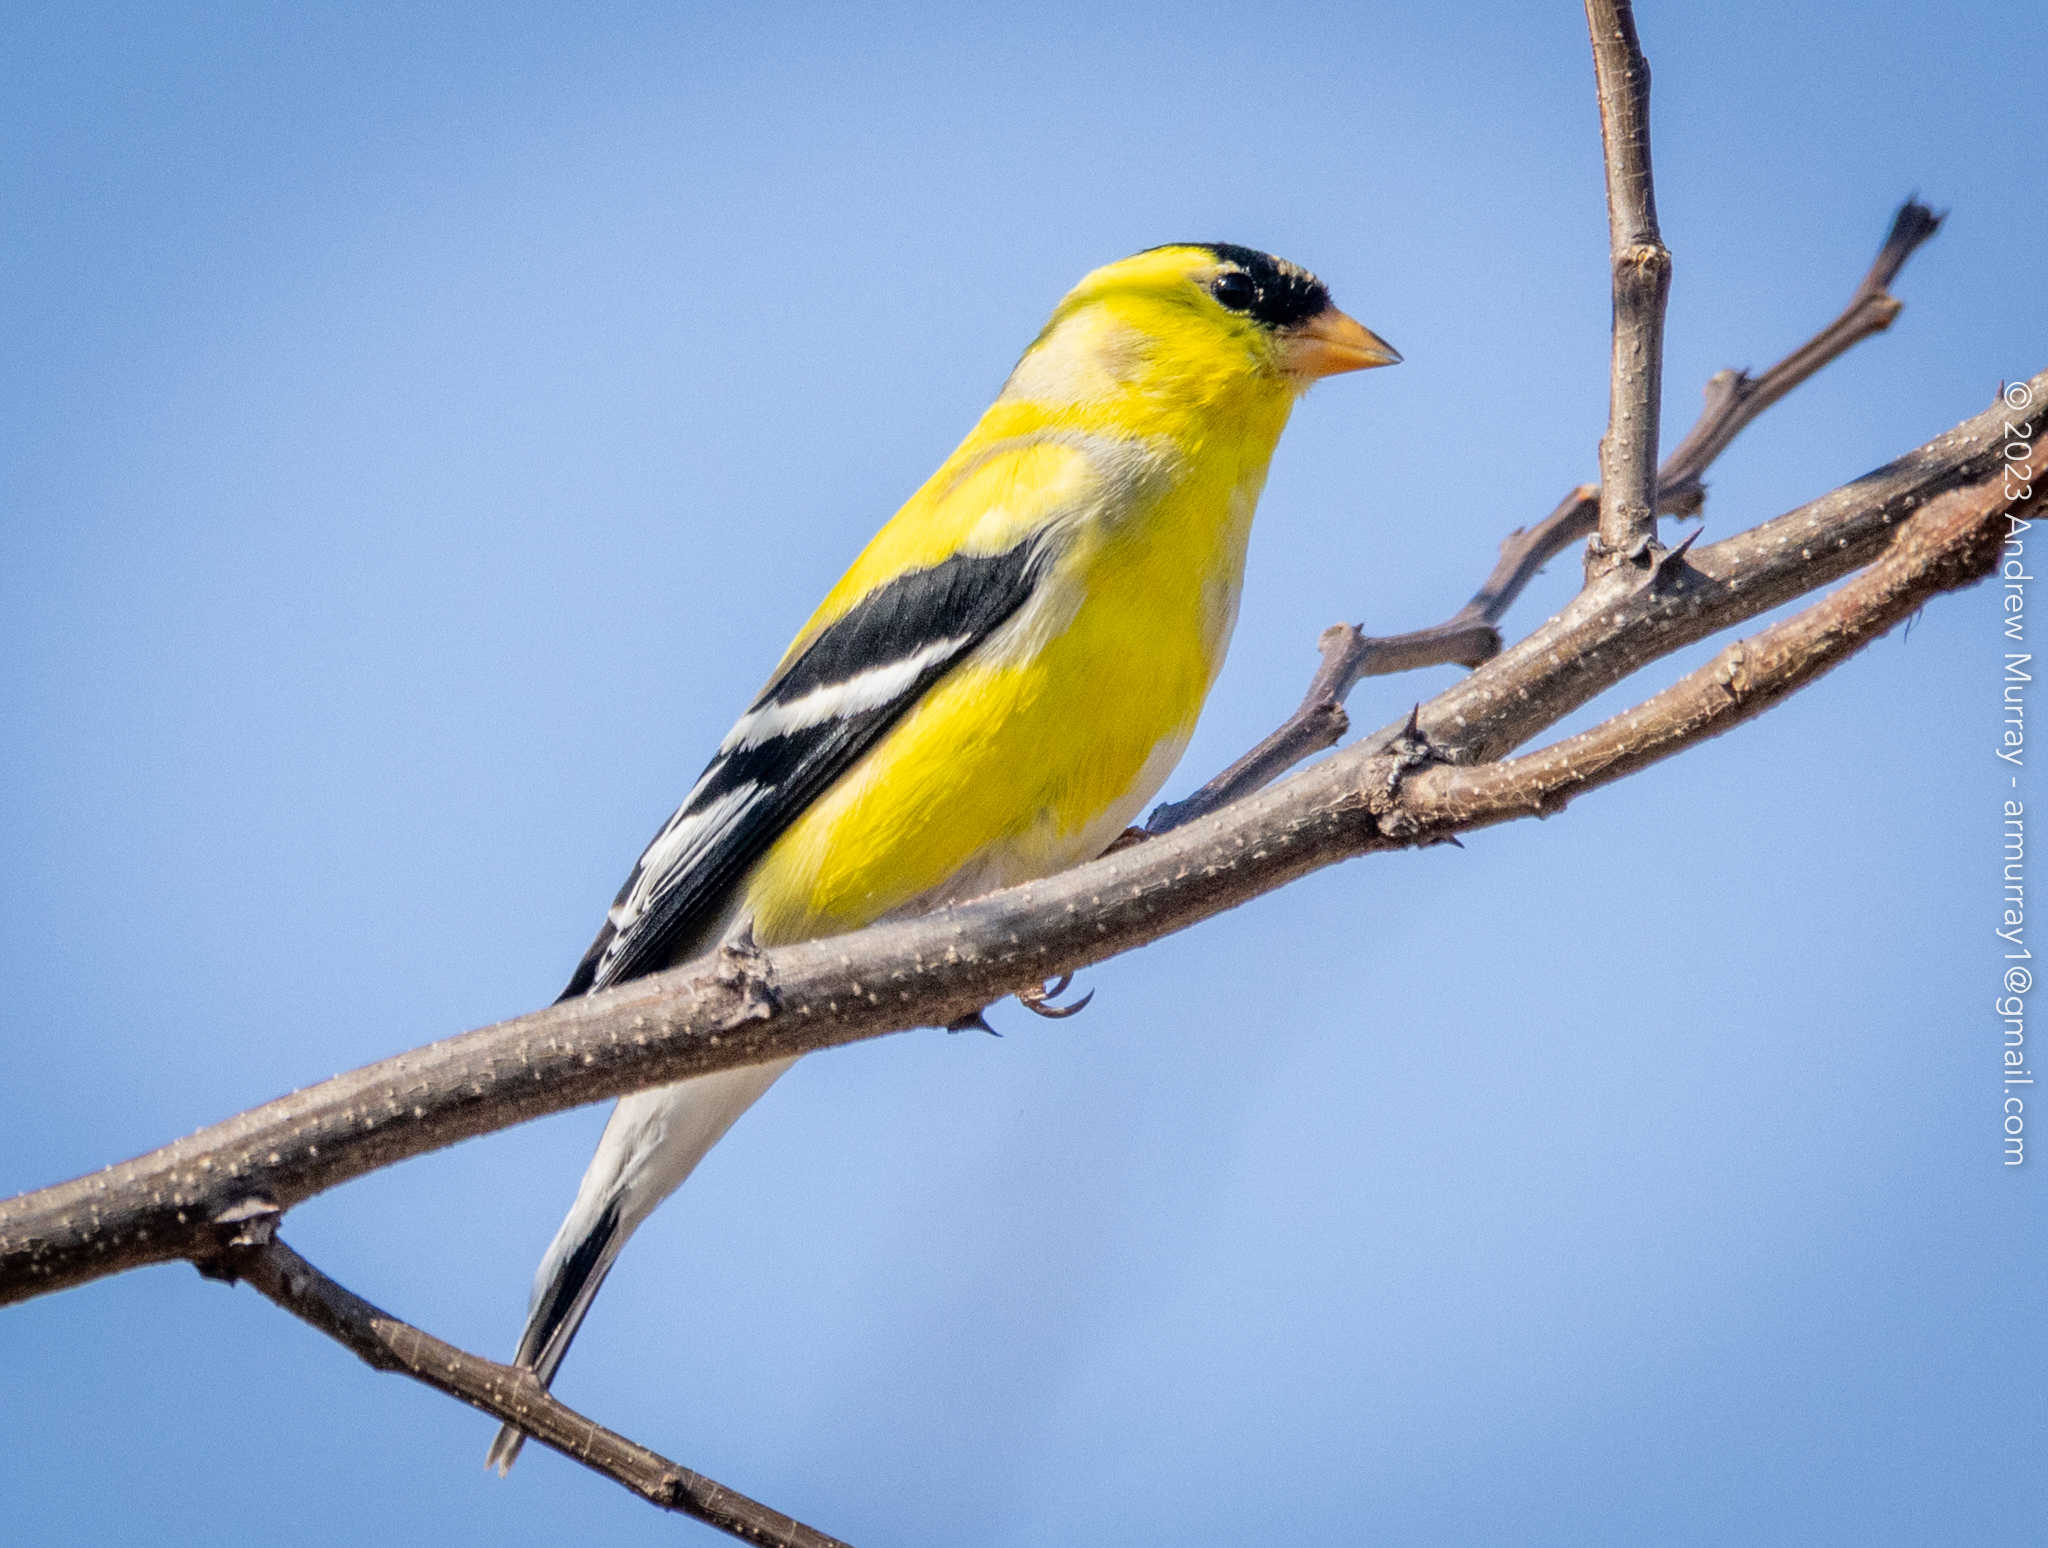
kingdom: Animalia
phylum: Chordata
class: Aves
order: Passeriformes
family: Fringillidae
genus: Spinus
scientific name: Spinus tristis
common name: American goldfinch
